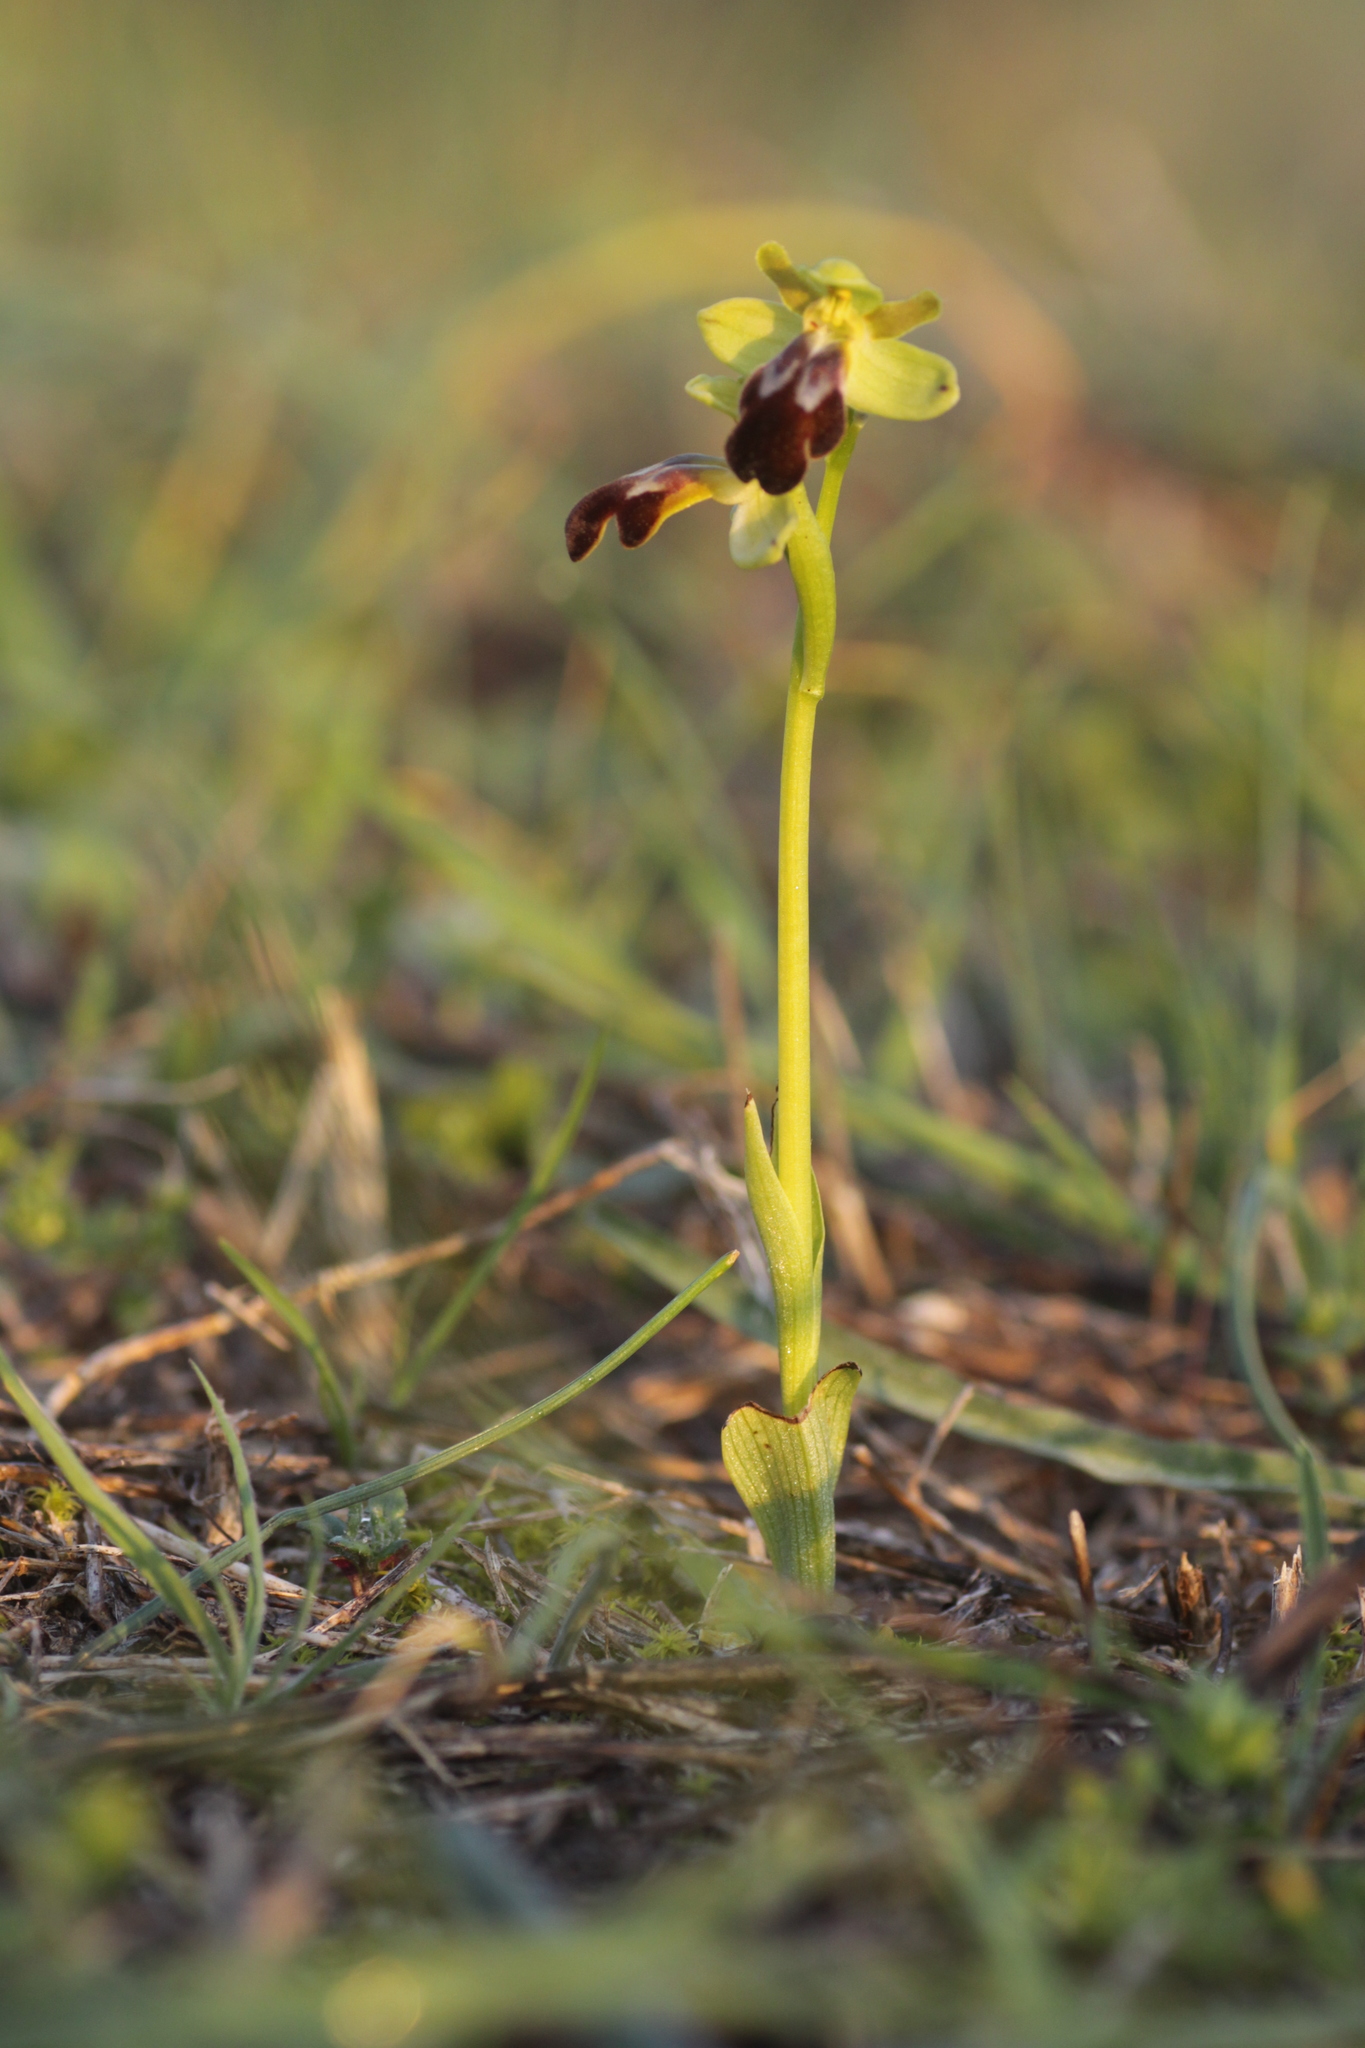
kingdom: Plantae
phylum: Tracheophyta
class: Liliopsida
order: Asparagales
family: Orchidaceae
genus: Ophrys
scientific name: Ophrys fusca
